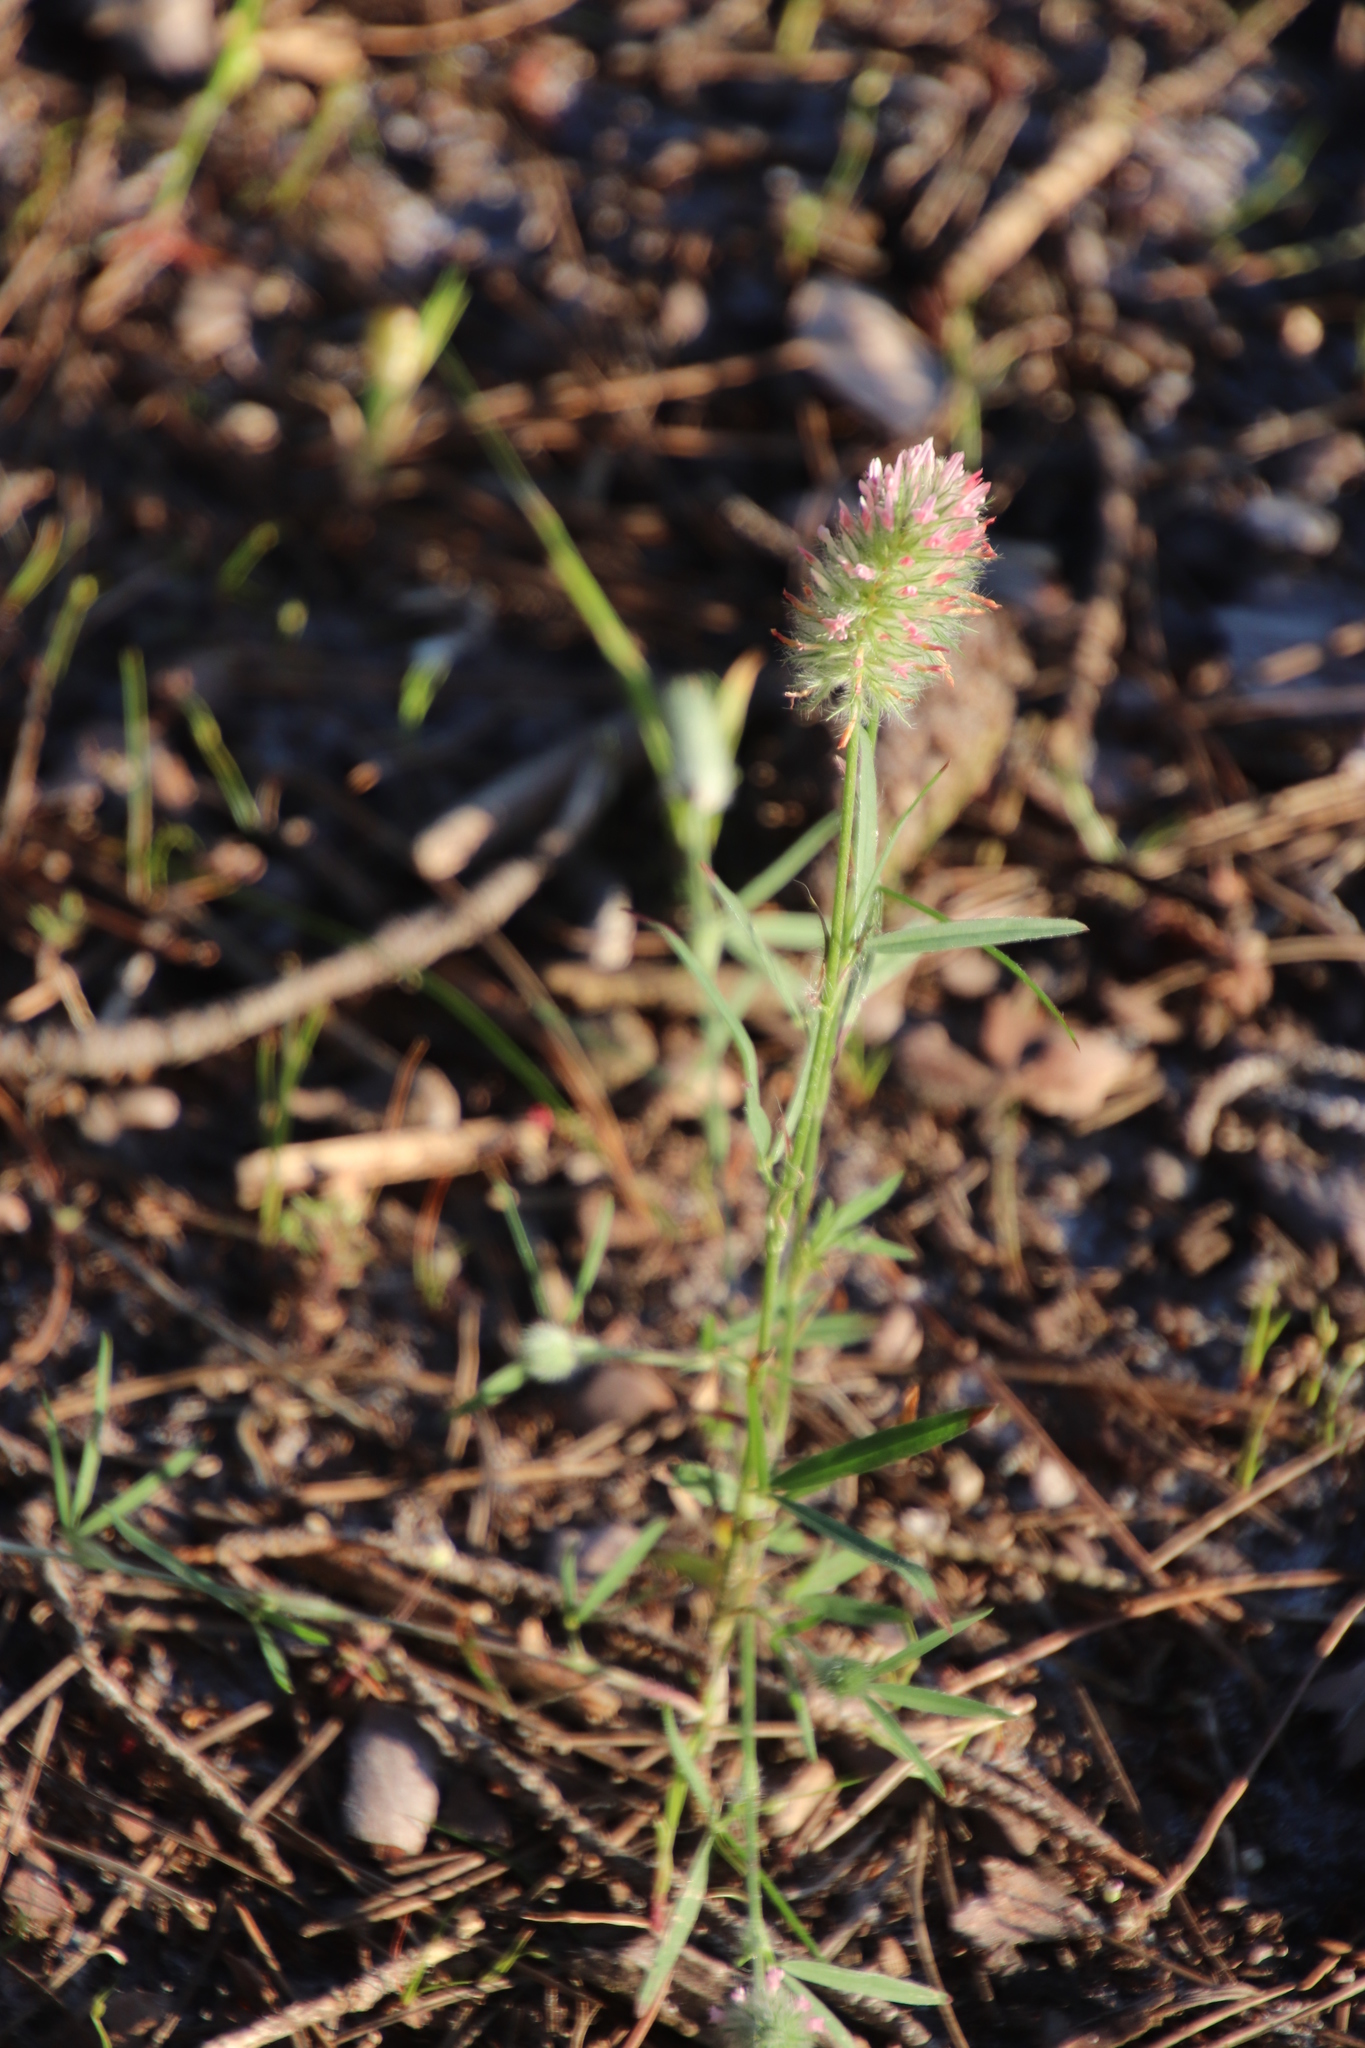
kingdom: Plantae
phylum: Tracheophyta
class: Magnoliopsida
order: Fabales
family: Fabaceae
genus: Trifolium
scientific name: Trifolium angustifolium
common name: Narrow clover
